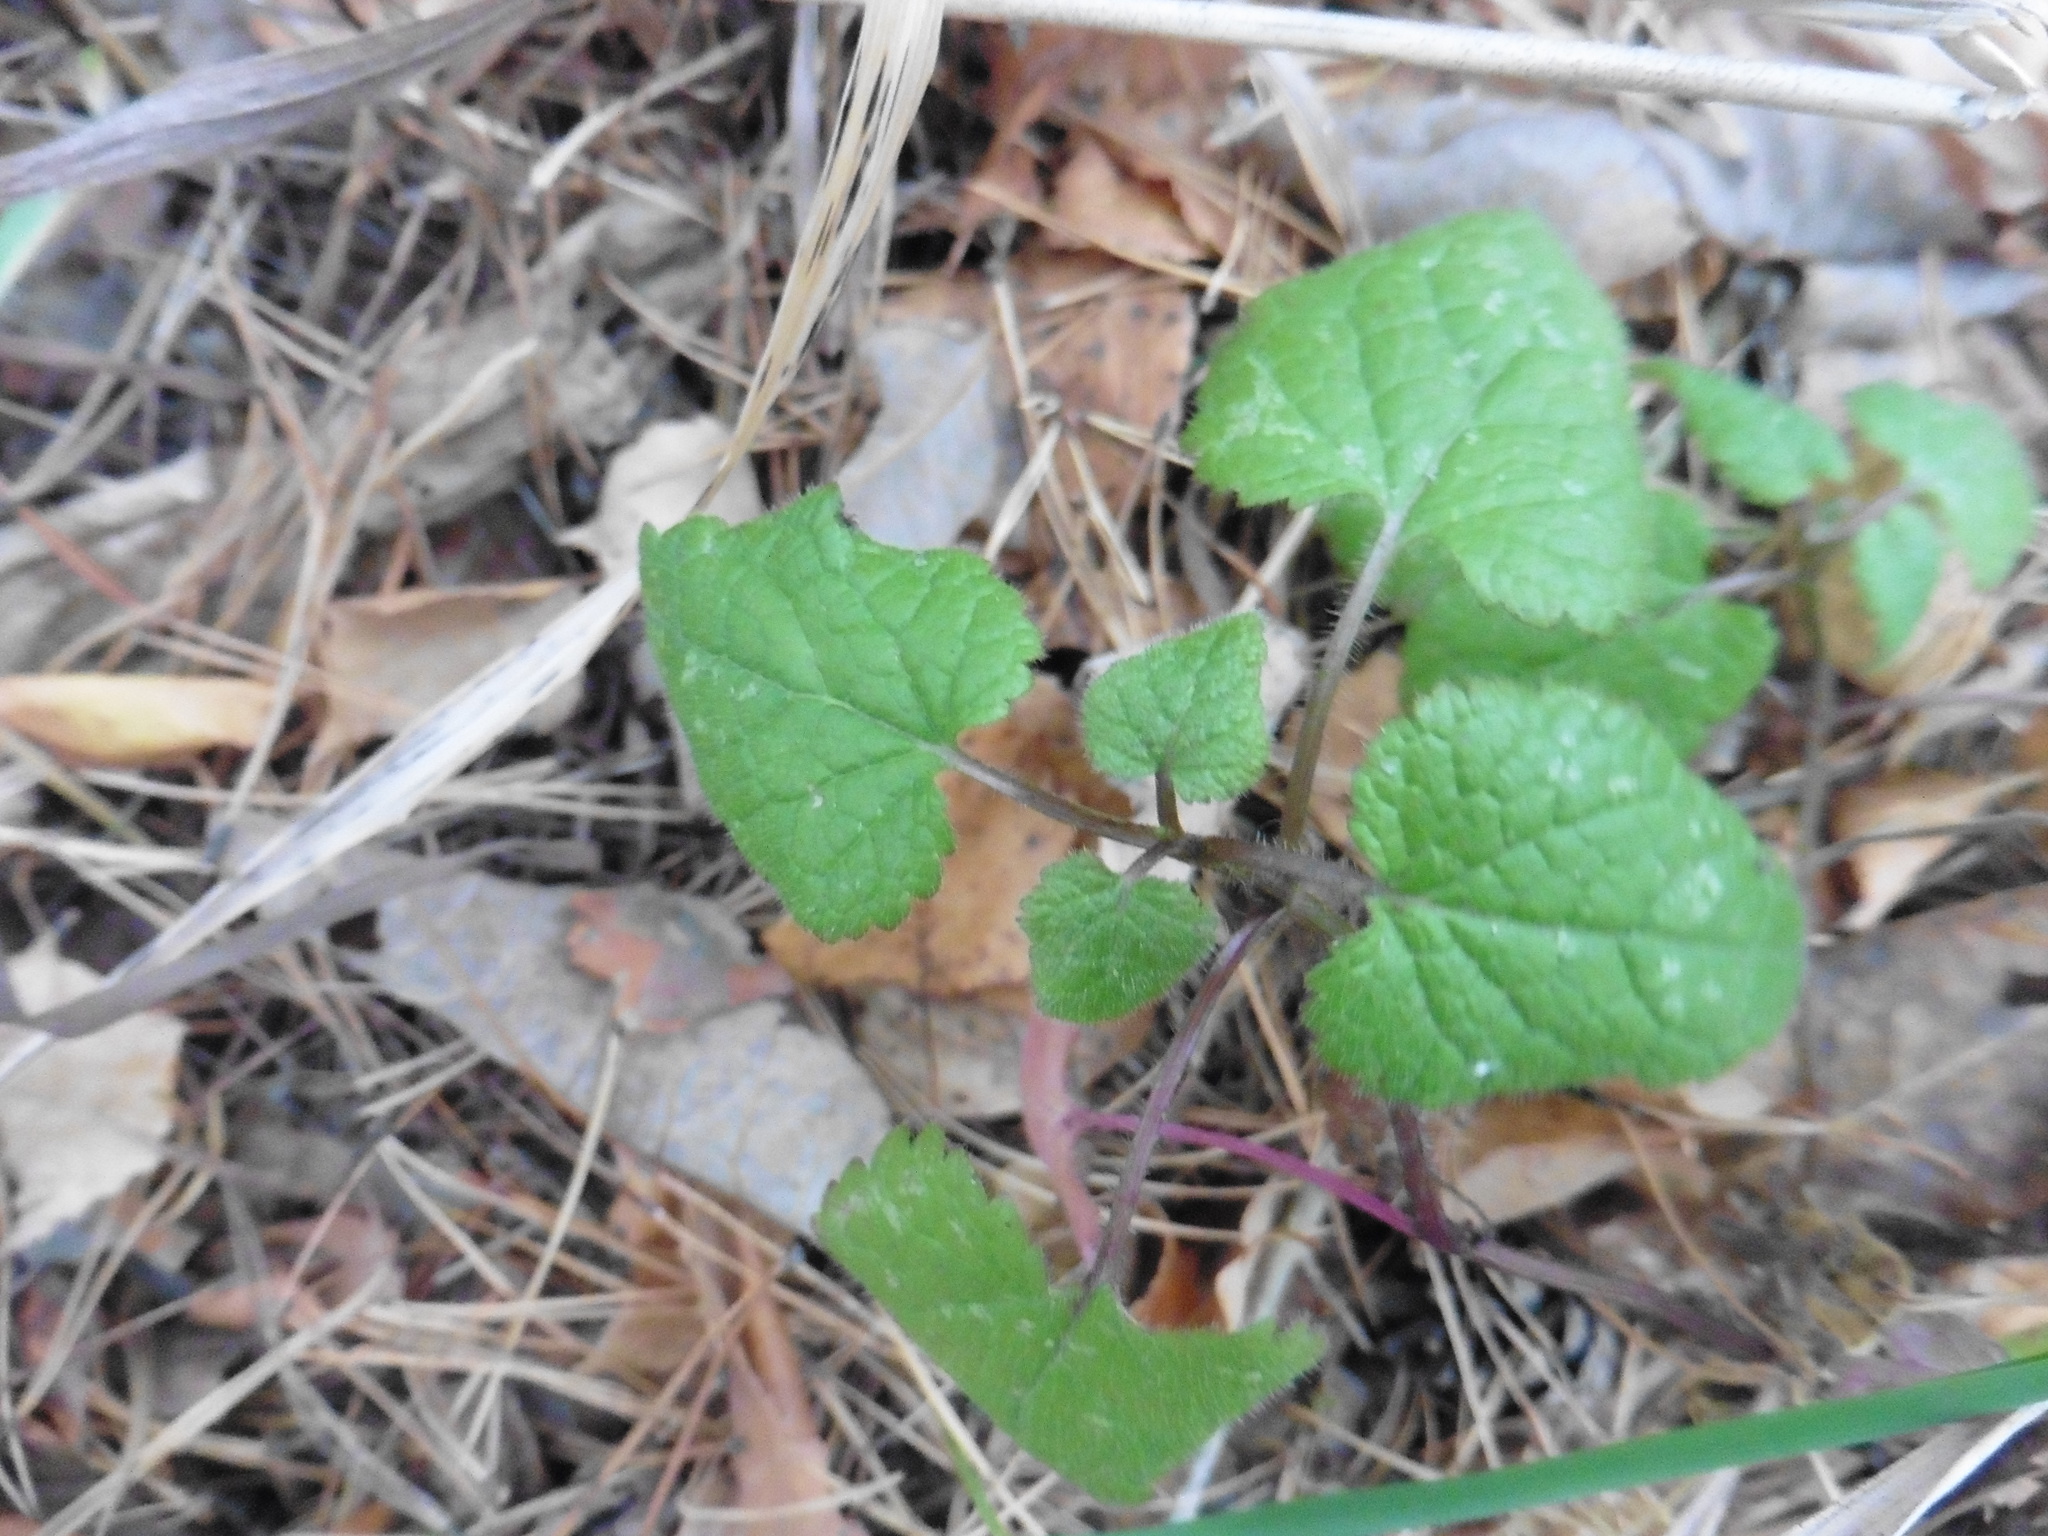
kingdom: Plantae
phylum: Tracheophyta
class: Magnoliopsida
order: Lamiales
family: Lamiaceae
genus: Lamium
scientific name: Lamium maculatum
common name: Spotted dead-nettle
